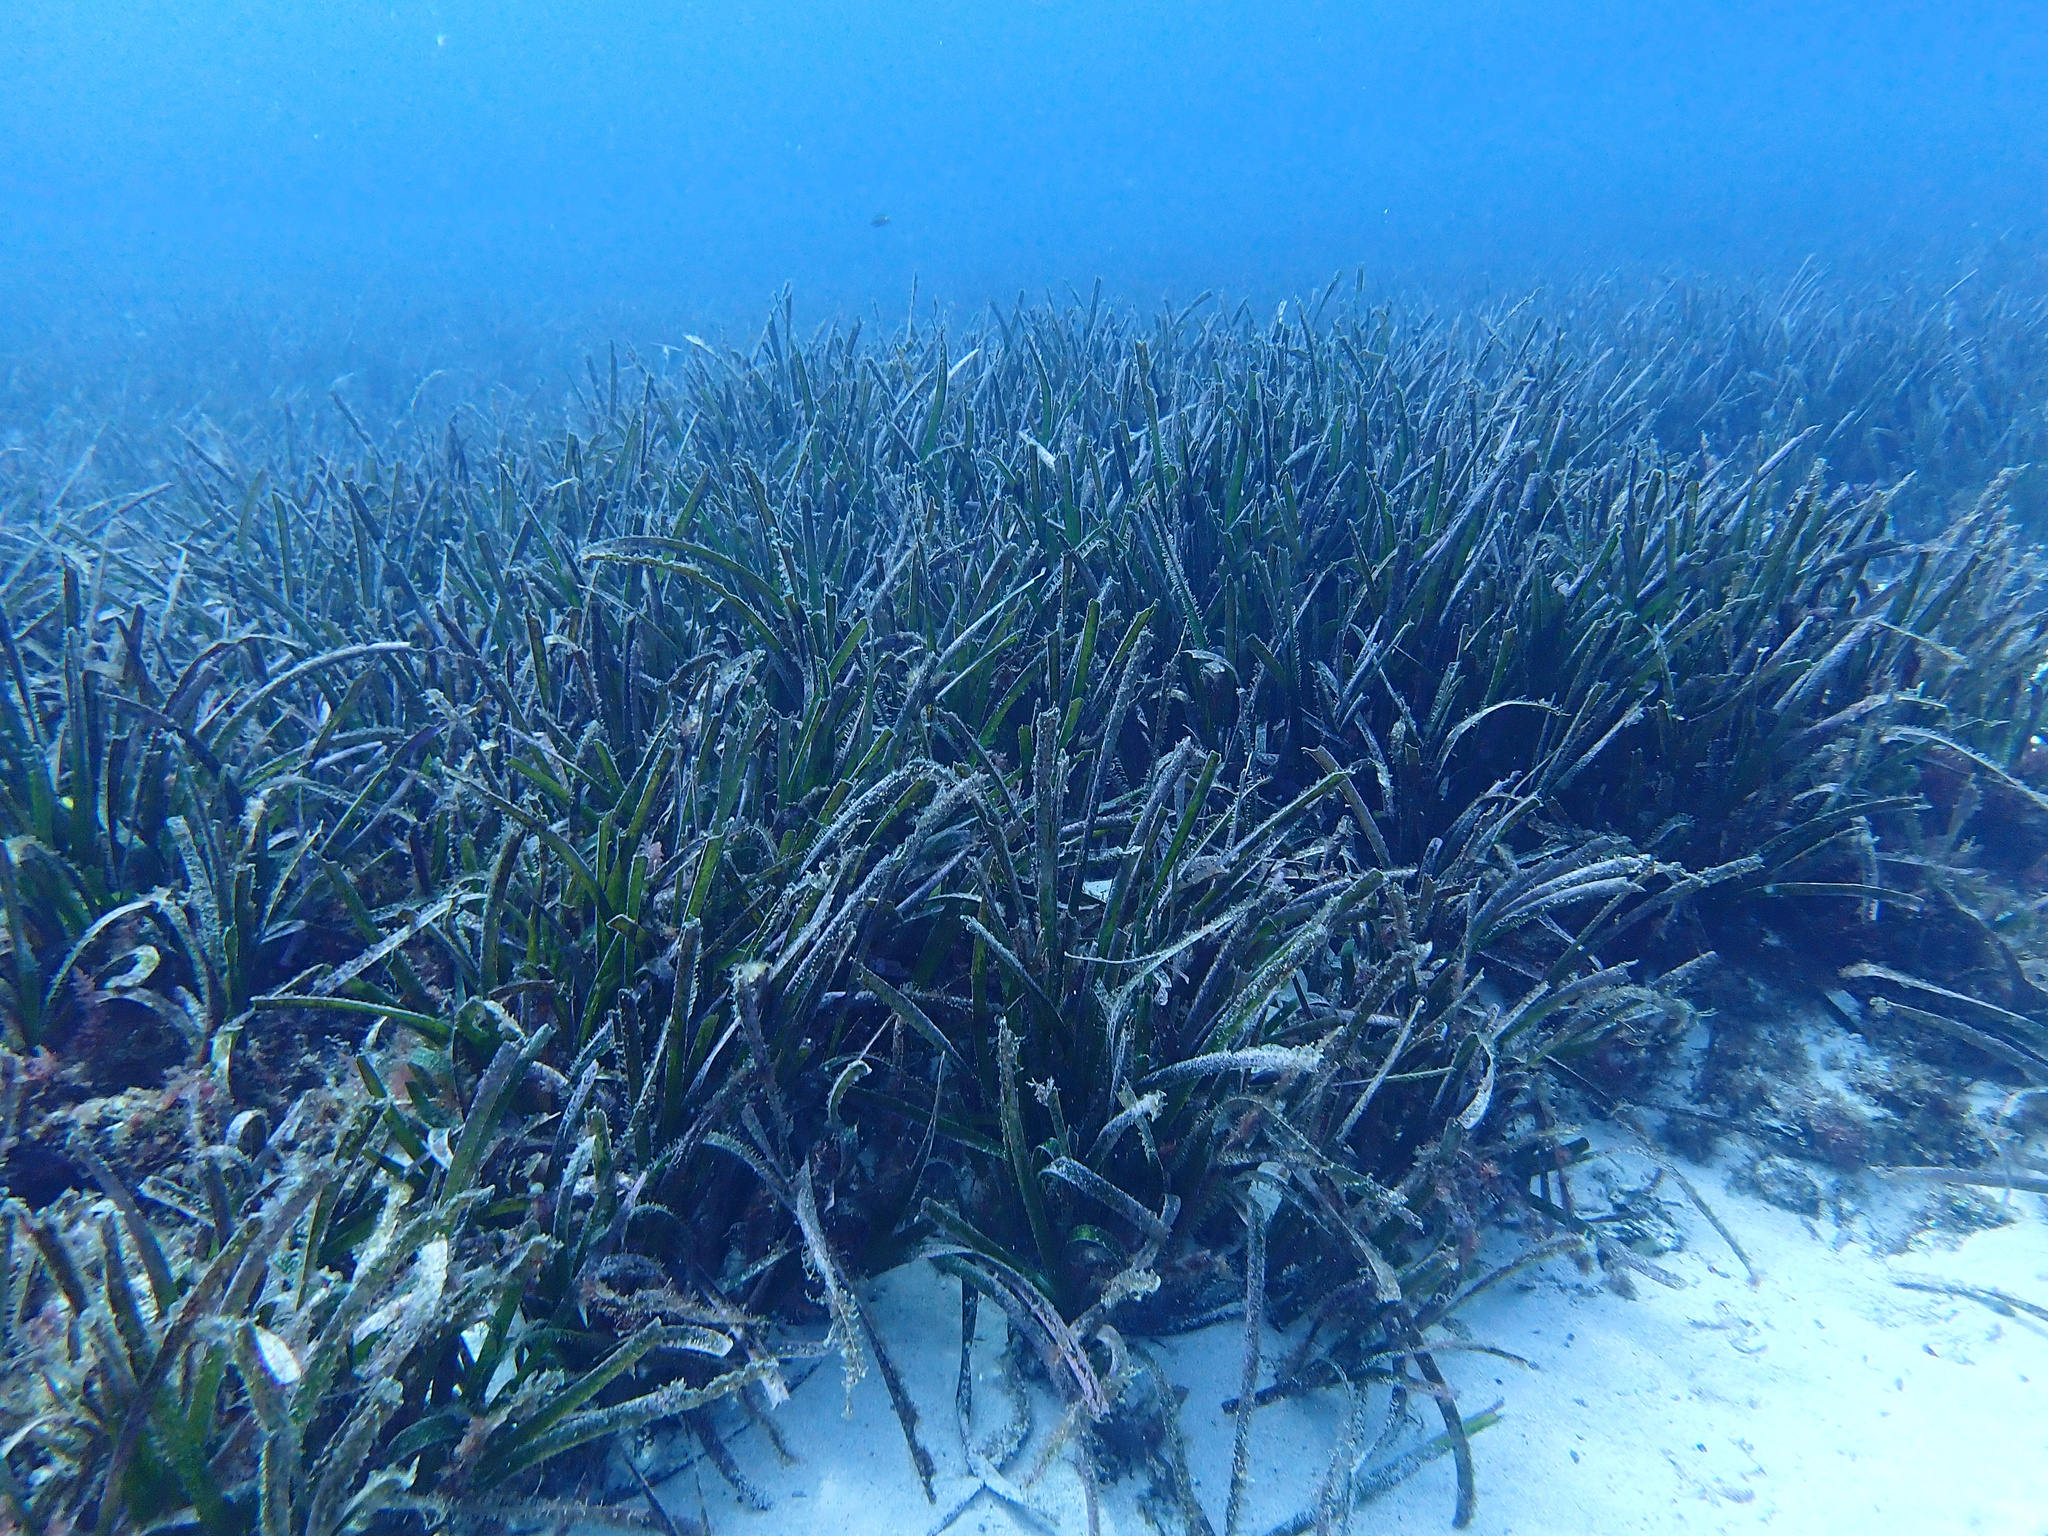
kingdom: Plantae
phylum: Tracheophyta
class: Liliopsida
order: Alismatales
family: Posidoniaceae
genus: Posidonia
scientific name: Posidonia oceanica
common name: Mediterranean tapeweed
